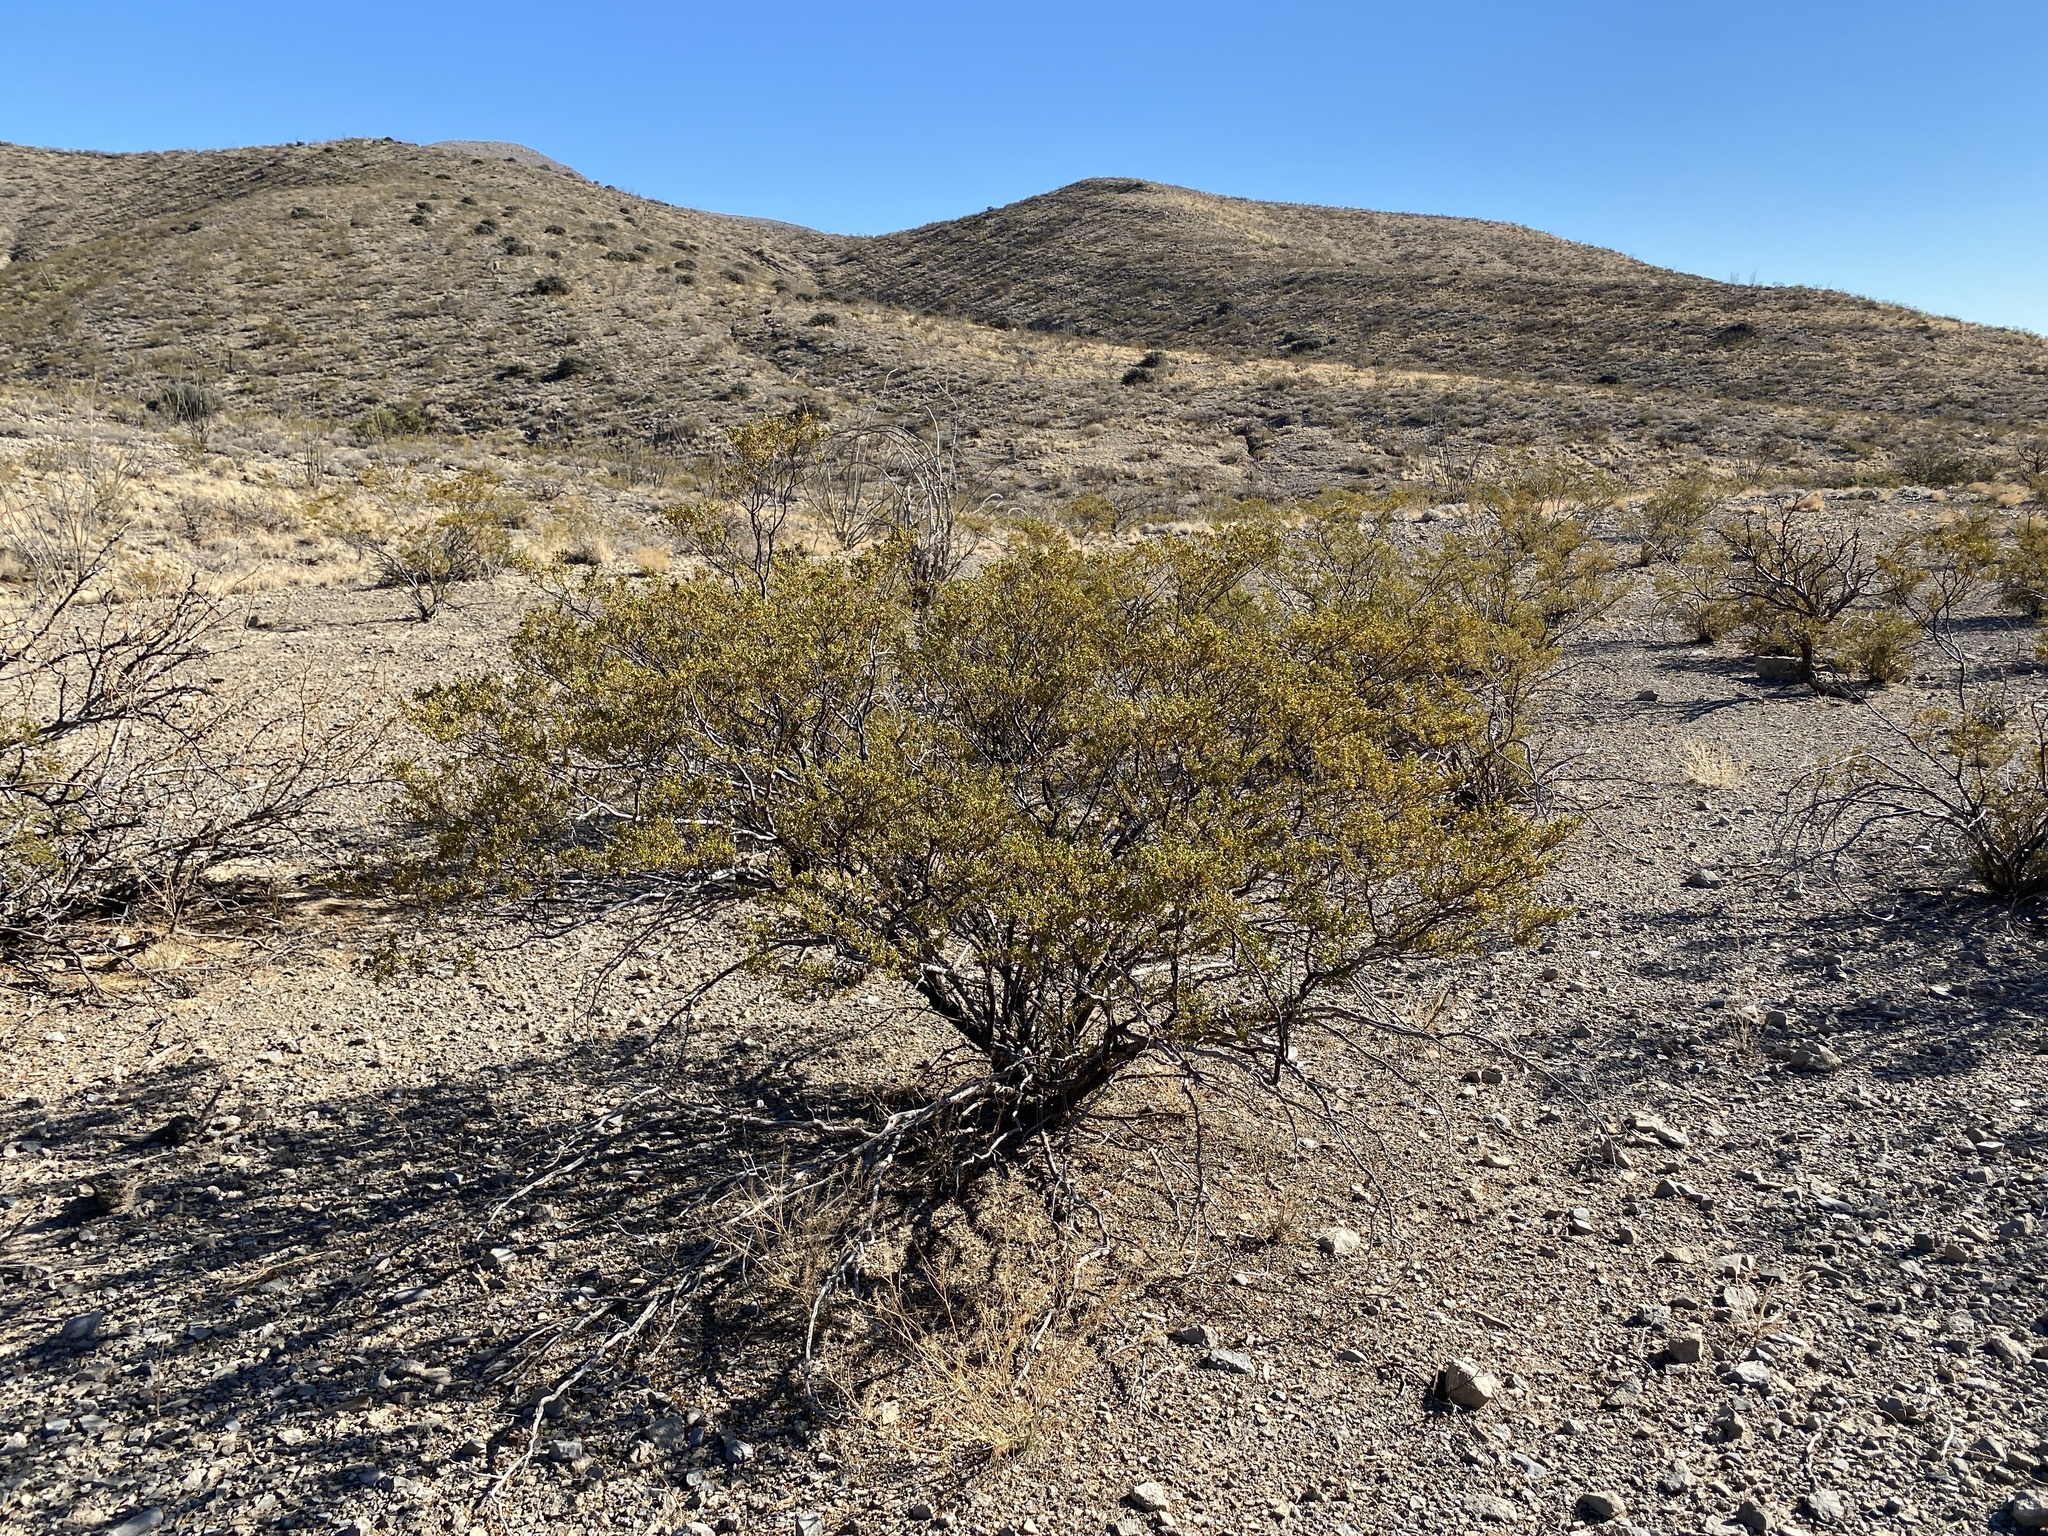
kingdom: Plantae
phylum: Tracheophyta
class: Magnoliopsida
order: Zygophyllales
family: Zygophyllaceae
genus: Larrea
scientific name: Larrea tridentata
